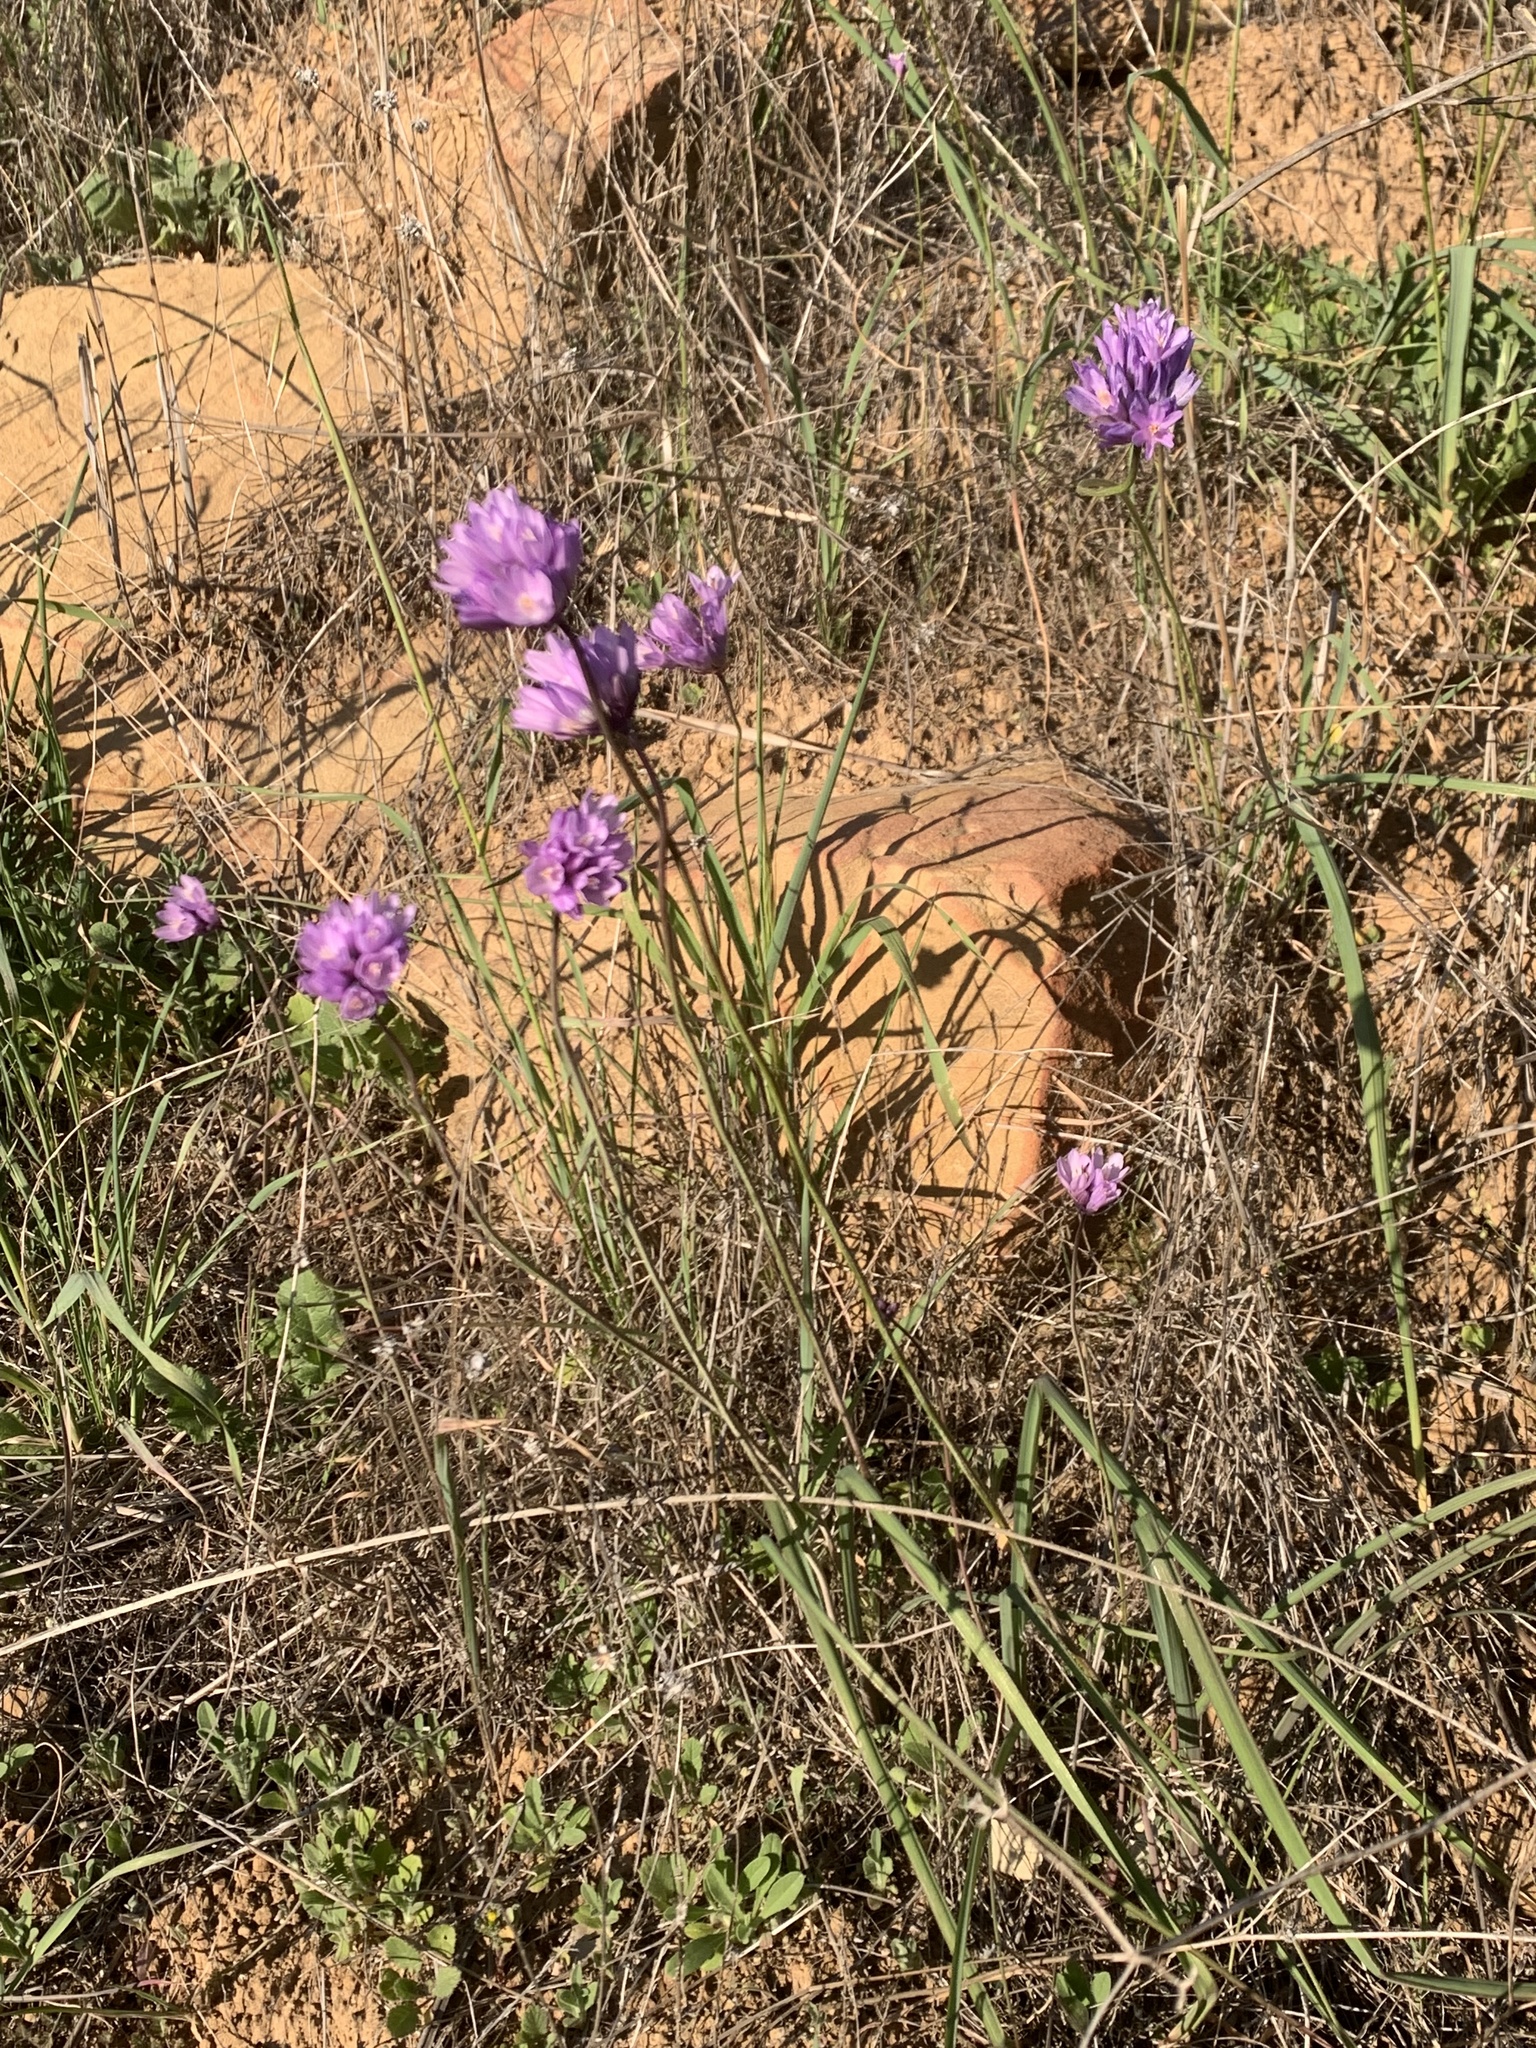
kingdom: Plantae
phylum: Tracheophyta
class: Liliopsida
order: Asparagales
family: Asparagaceae
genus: Dipterostemon
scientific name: Dipterostemon capitatus
